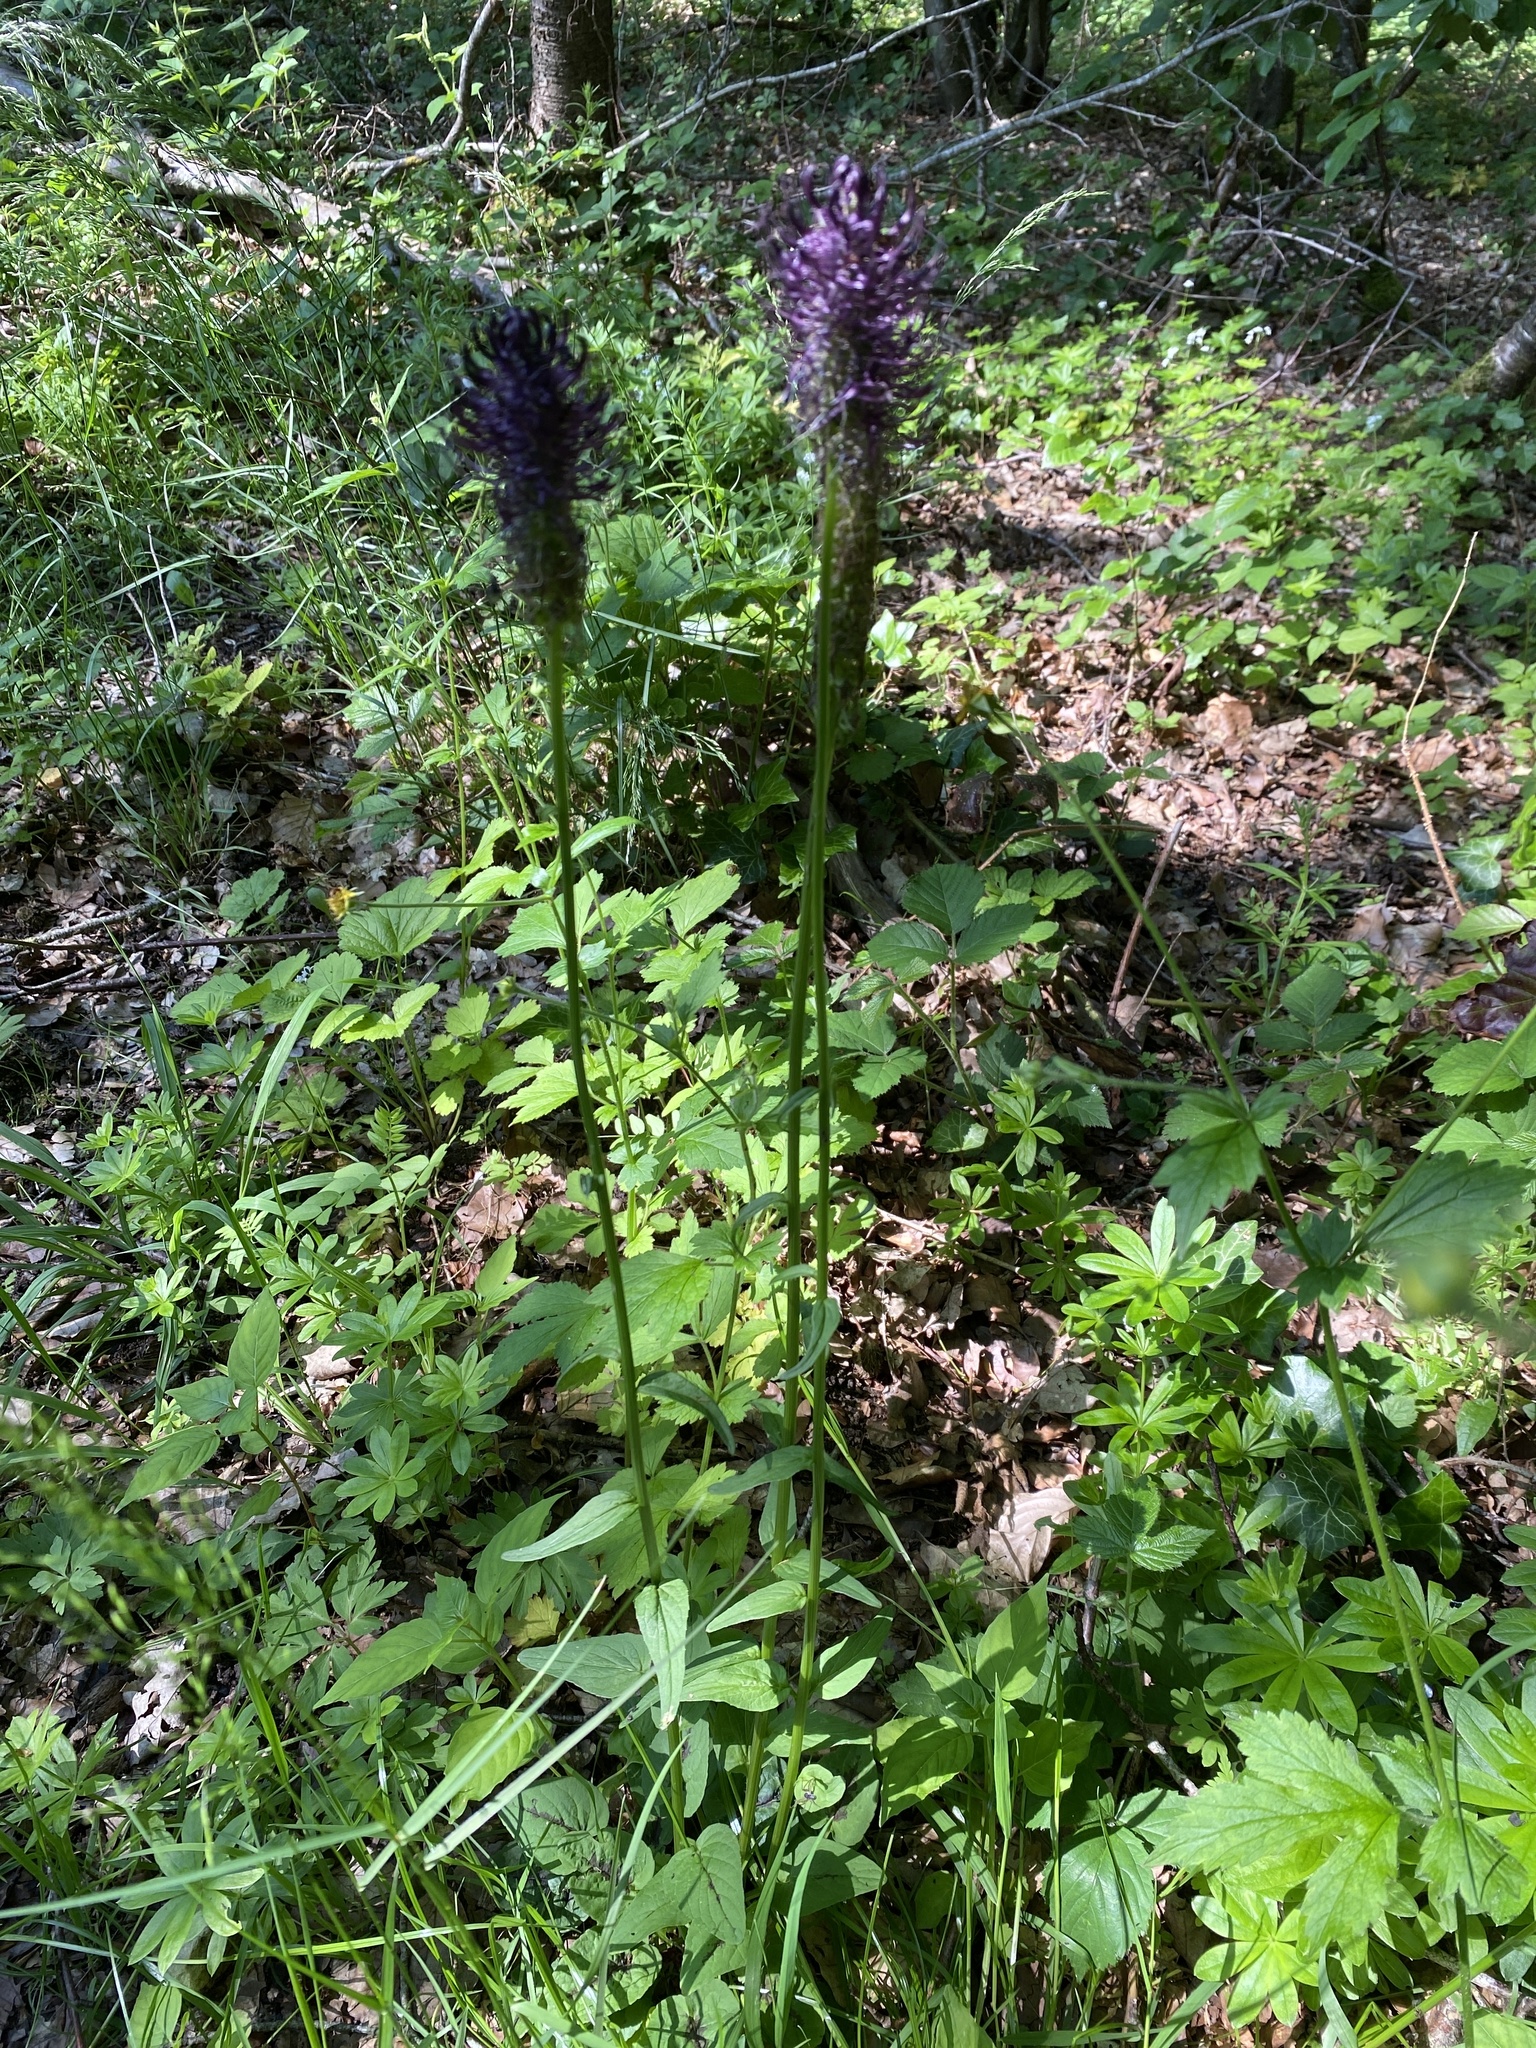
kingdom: Plantae
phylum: Tracheophyta
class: Magnoliopsida
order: Asterales
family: Campanulaceae
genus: Phyteuma
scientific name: Phyteuma nigrum
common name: Black rampion
